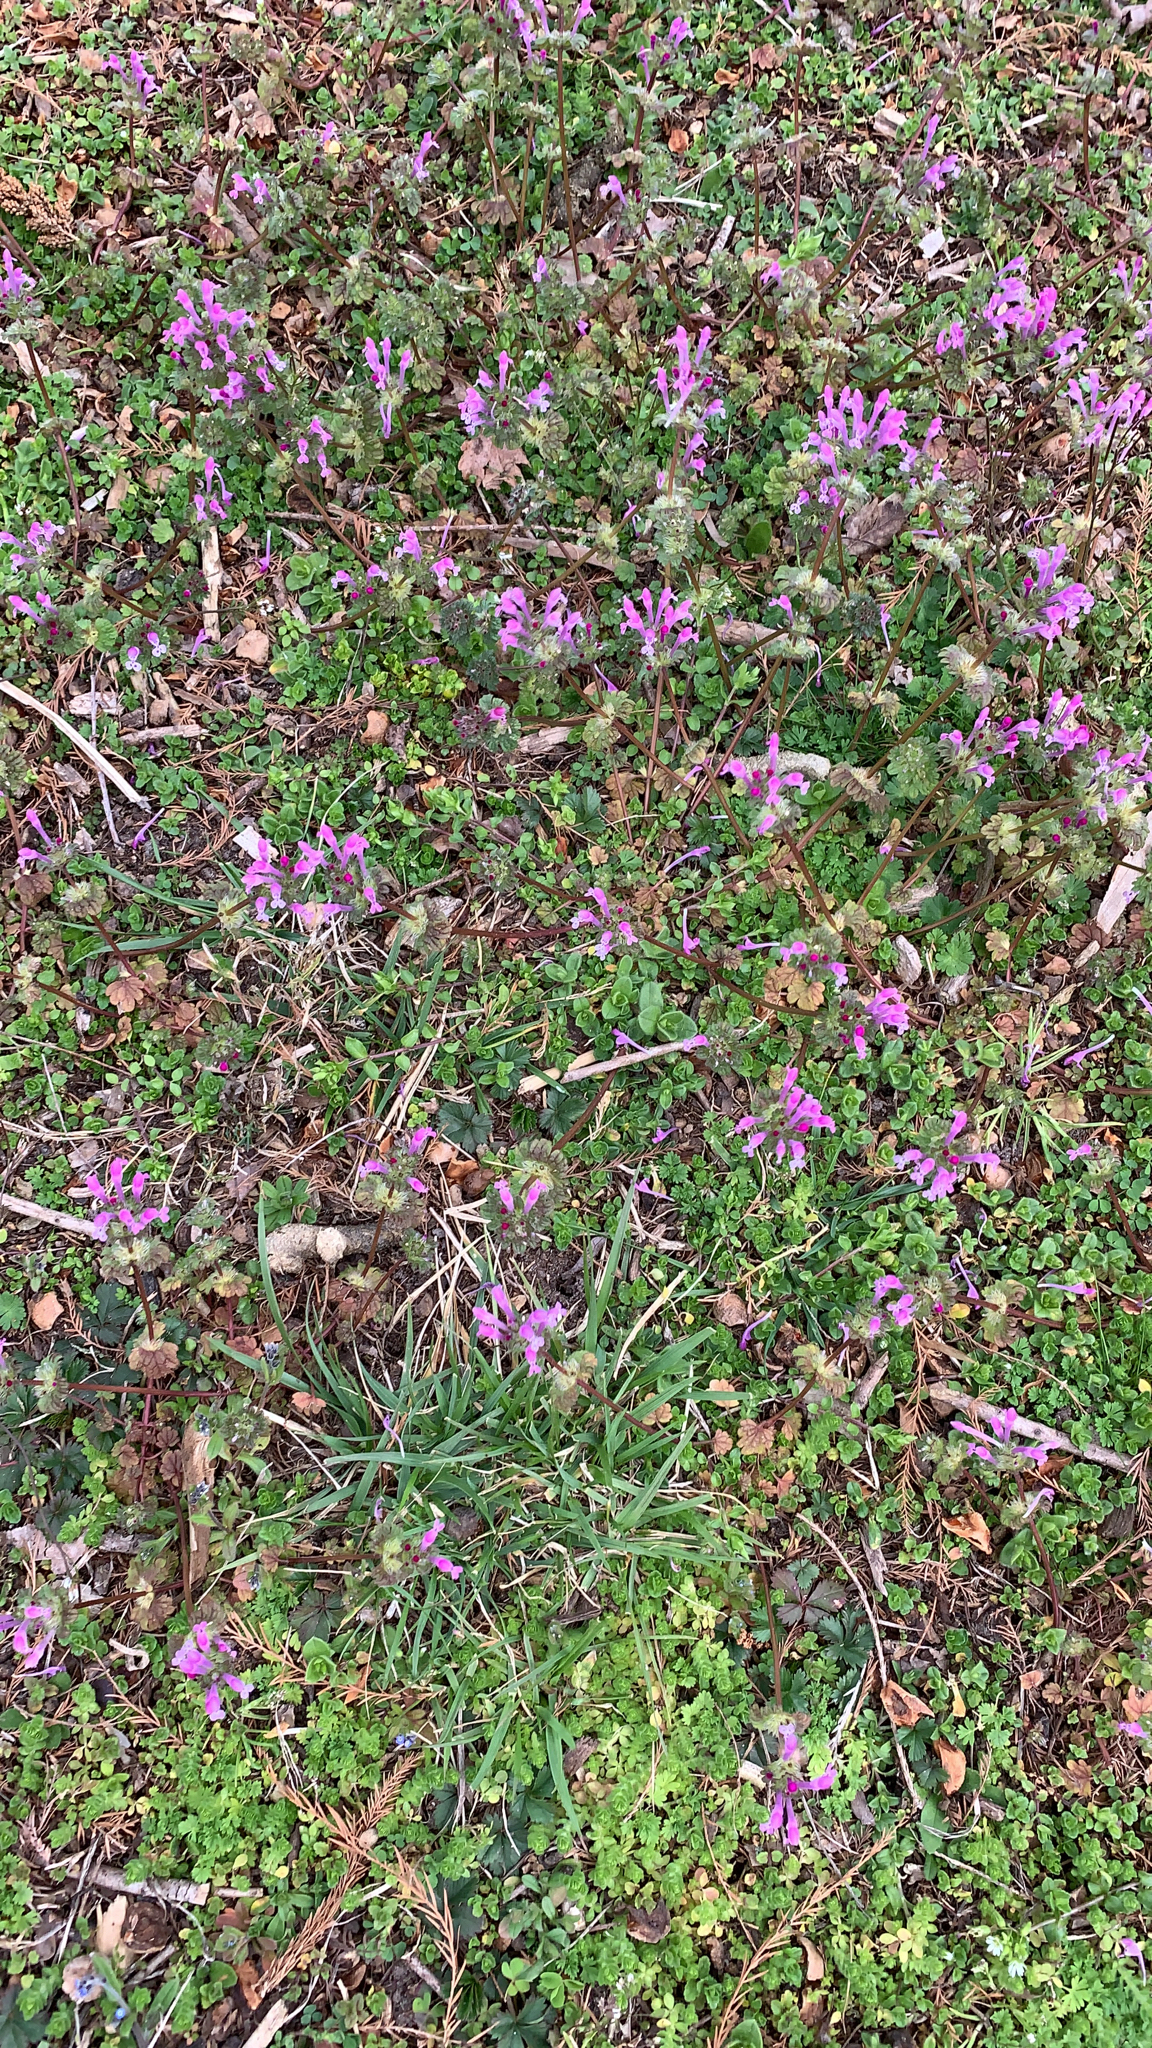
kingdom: Plantae
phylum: Tracheophyta
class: Magnoliopsida
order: Lamiales
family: Lamiaceae
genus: Lamium
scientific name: Lamium amplexicaule
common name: Henbit dead-nettle
